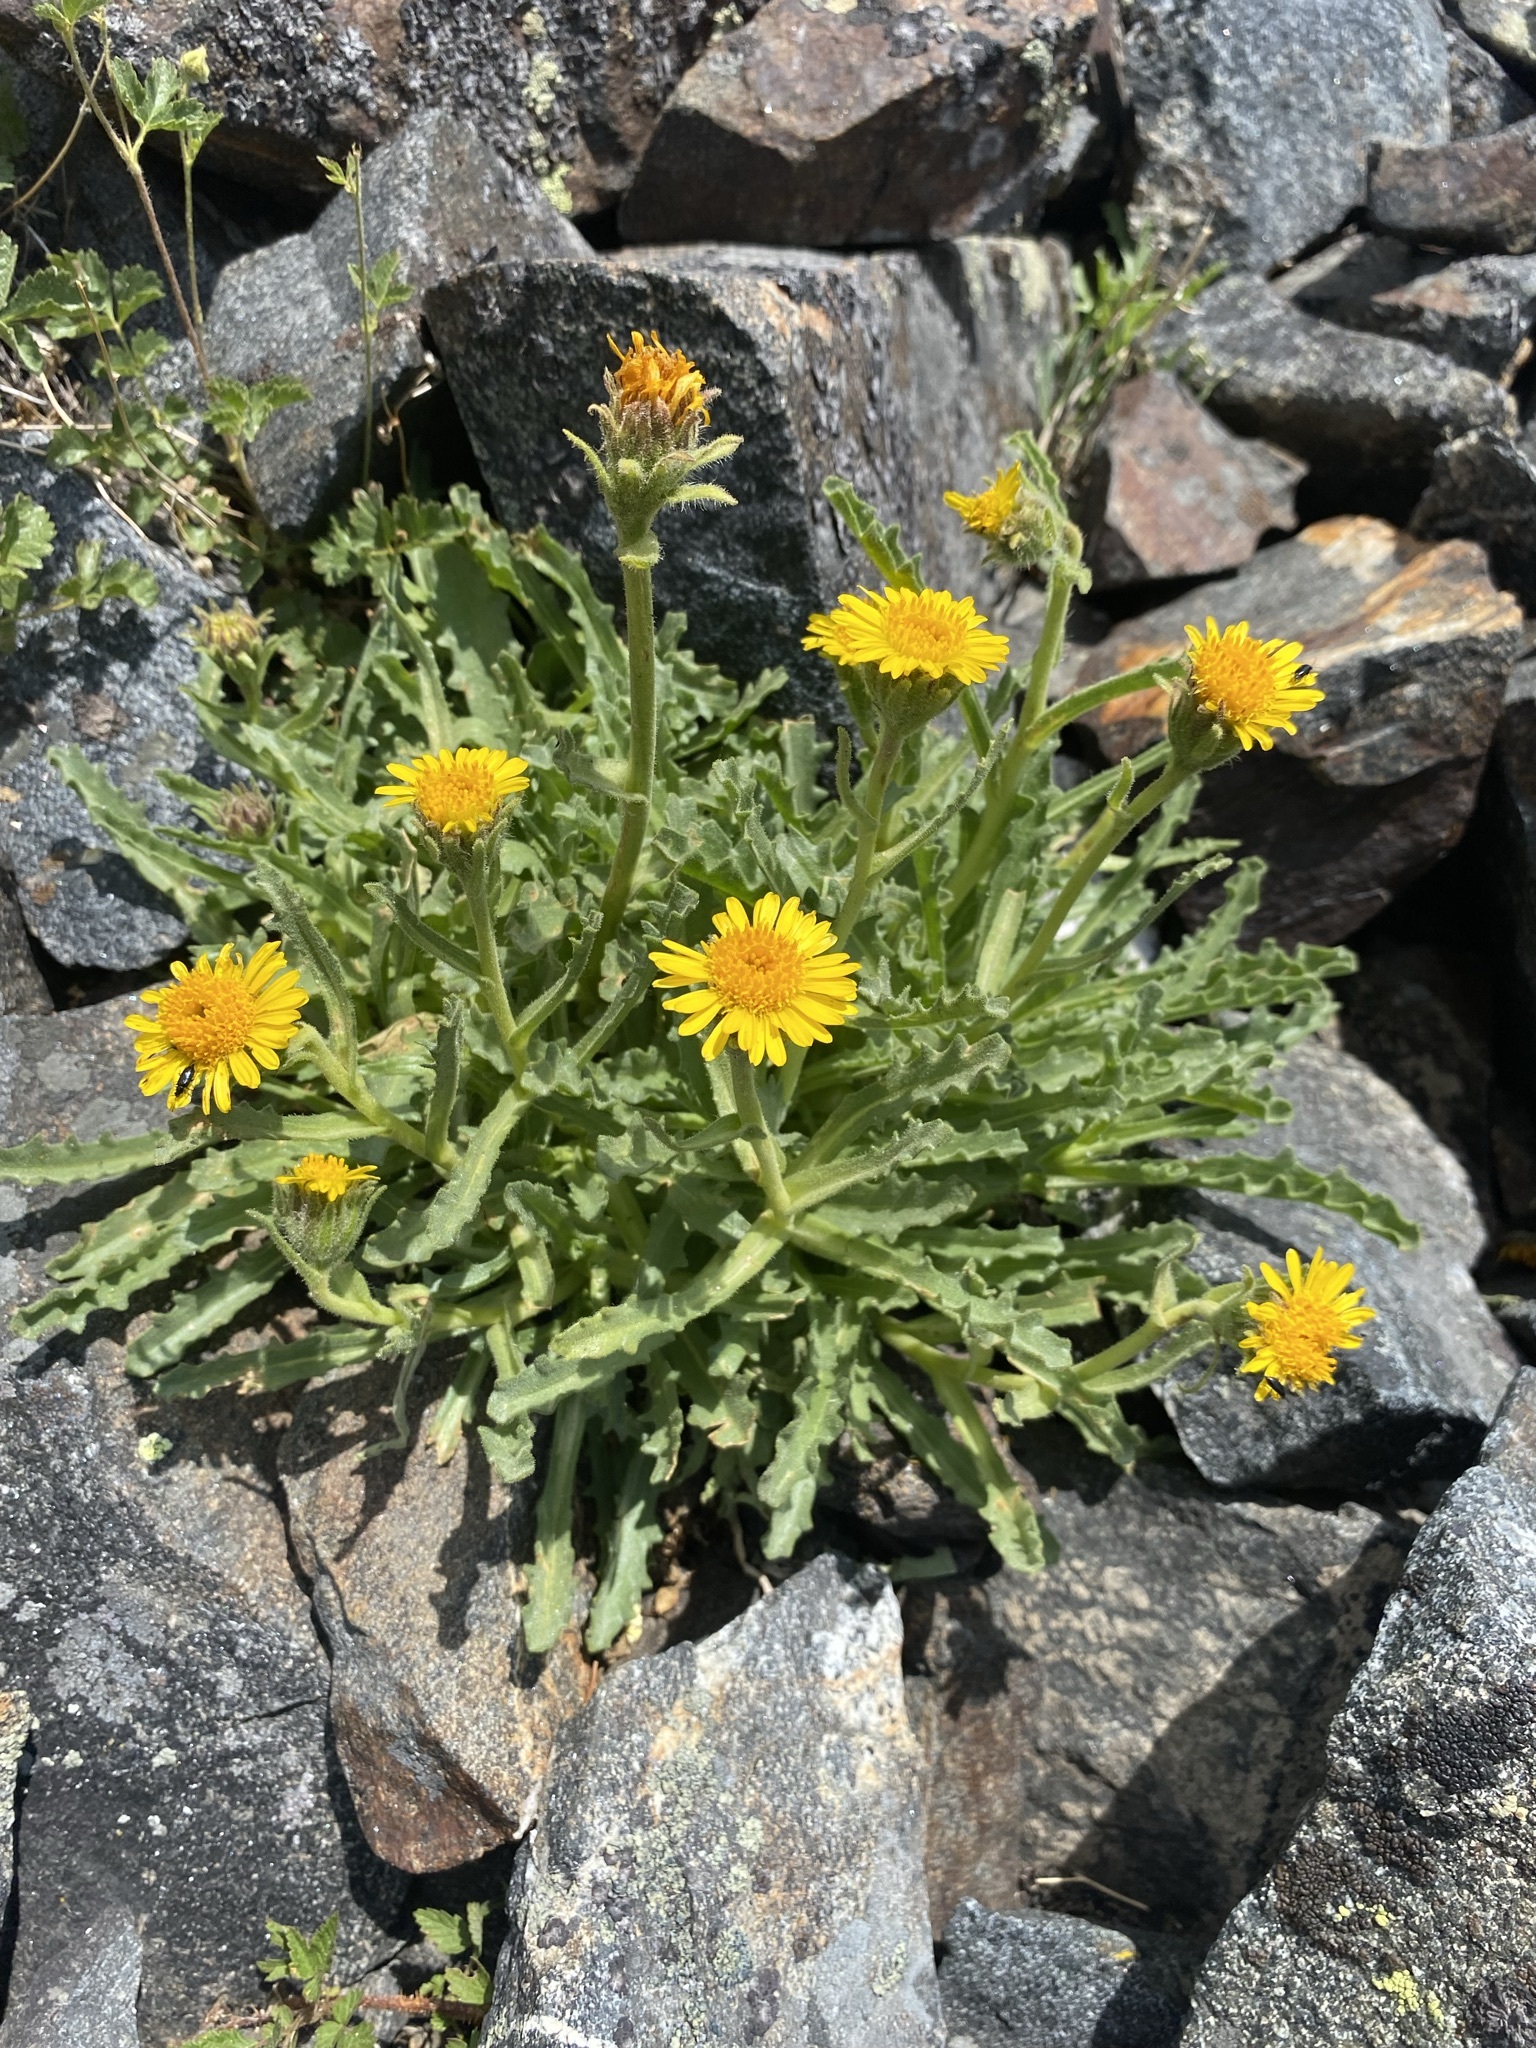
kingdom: Plantae
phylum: Tracheophyta
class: Magnoliopsida
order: Asterales
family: Asteraceae
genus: Hulsea
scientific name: Hulsea algida
